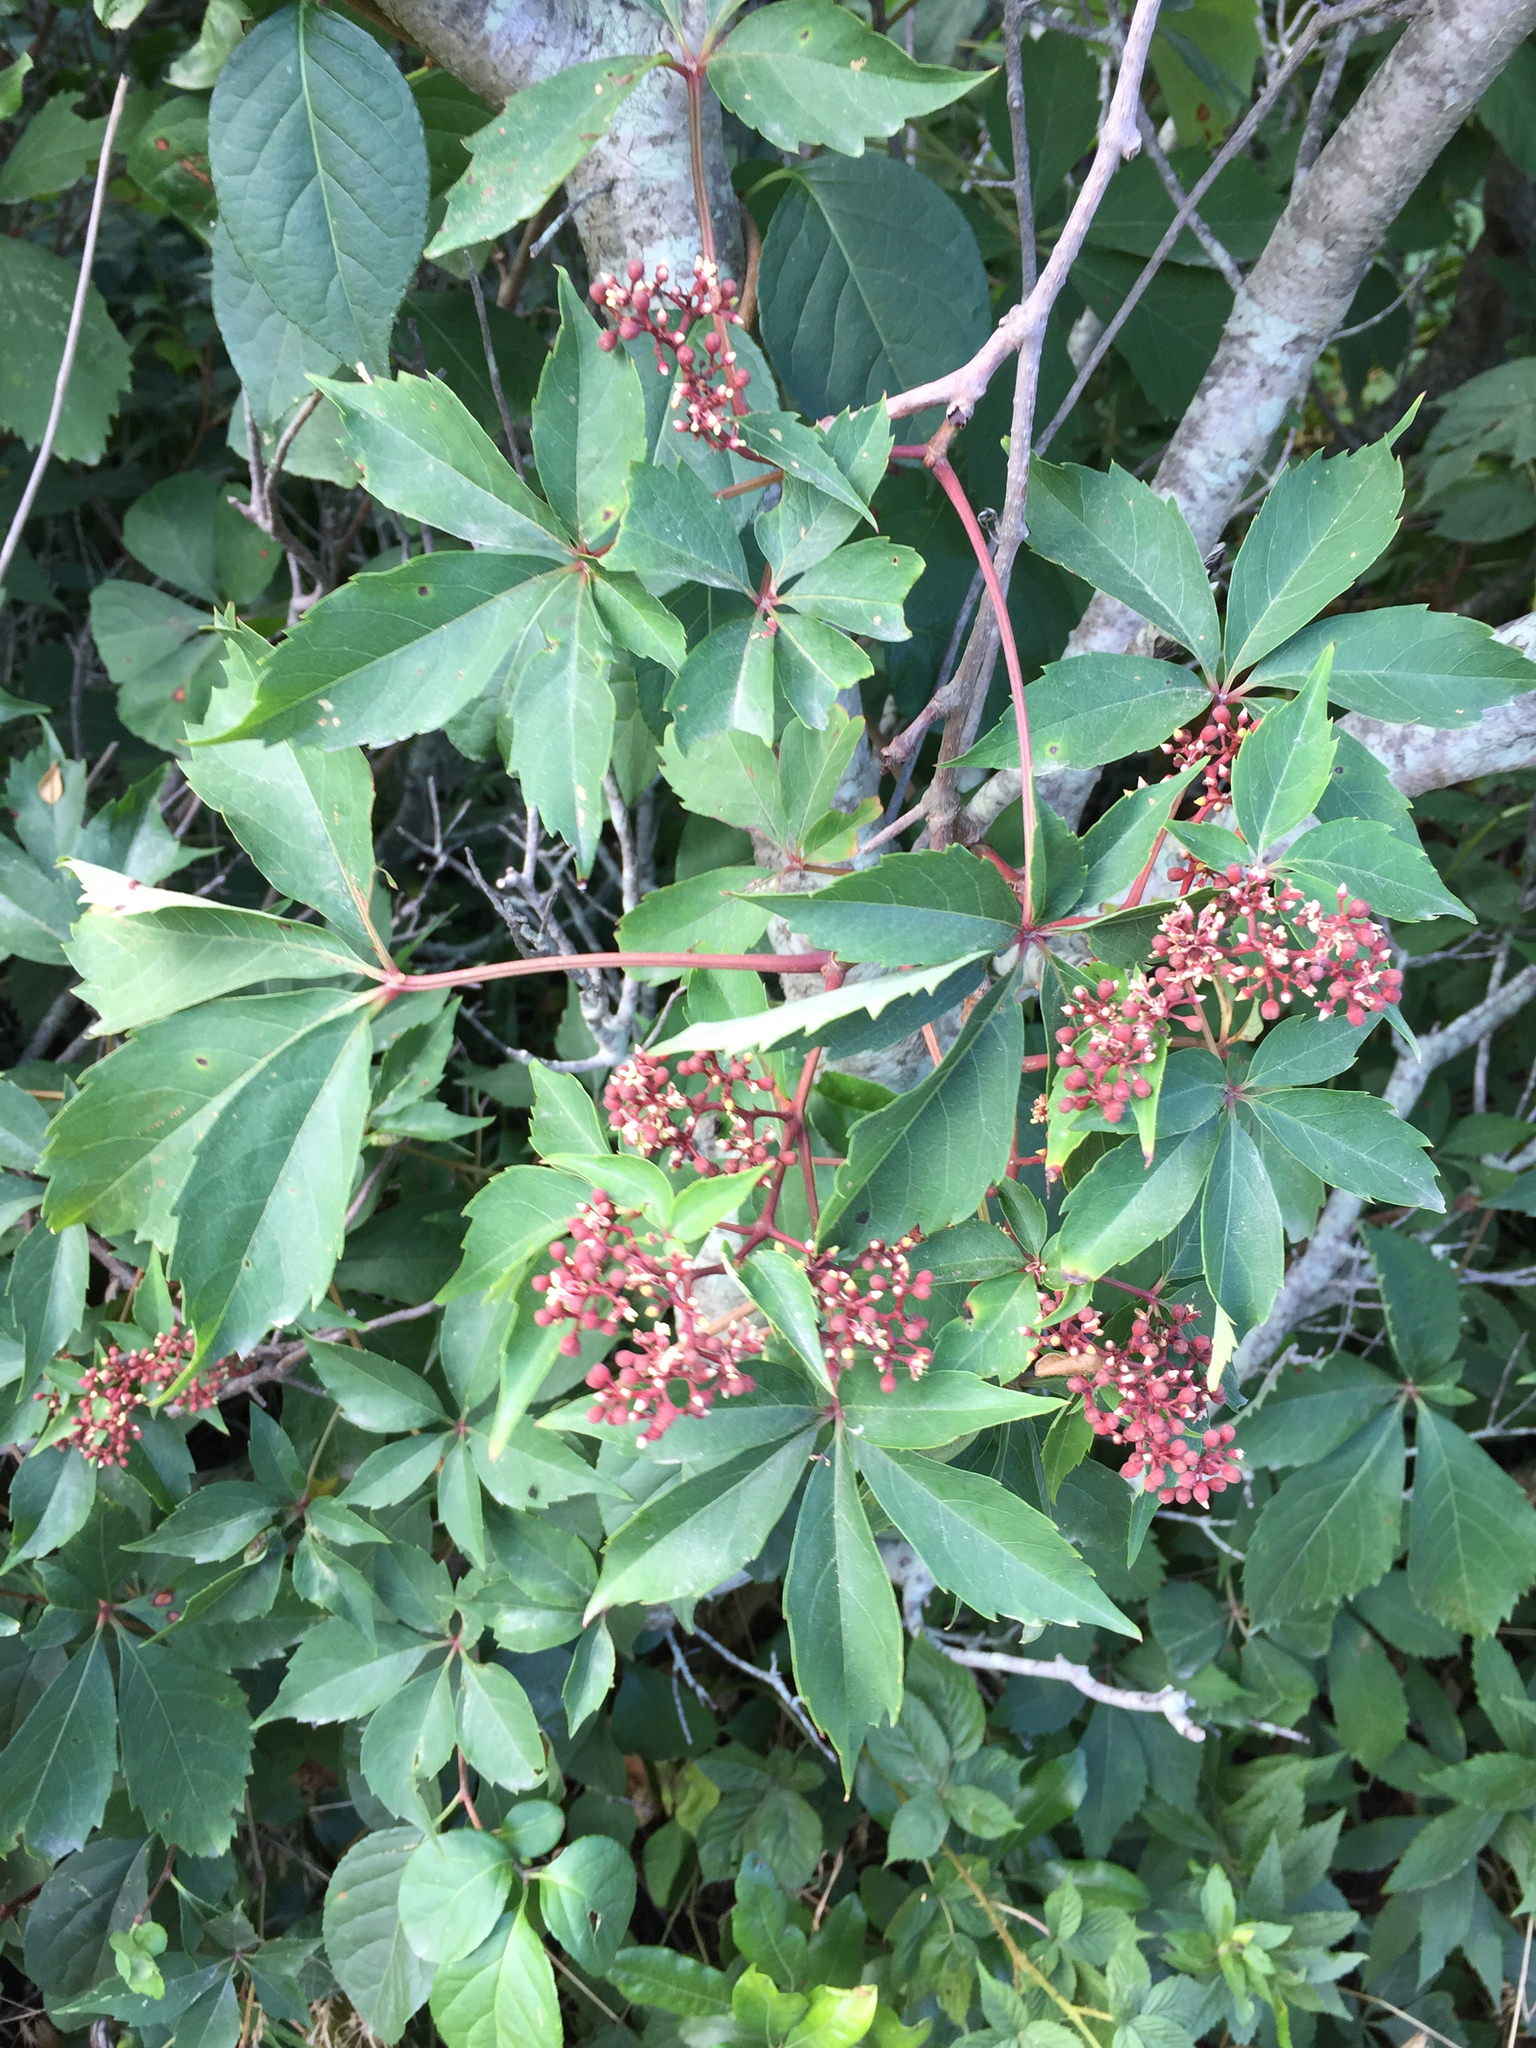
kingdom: Plantae
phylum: Tracheophyta
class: Magnoliopsida
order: Vitales
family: Vitaceae
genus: Parthenocissus
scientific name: Parthenocissus quinquefolia
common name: Virginia-creeper
